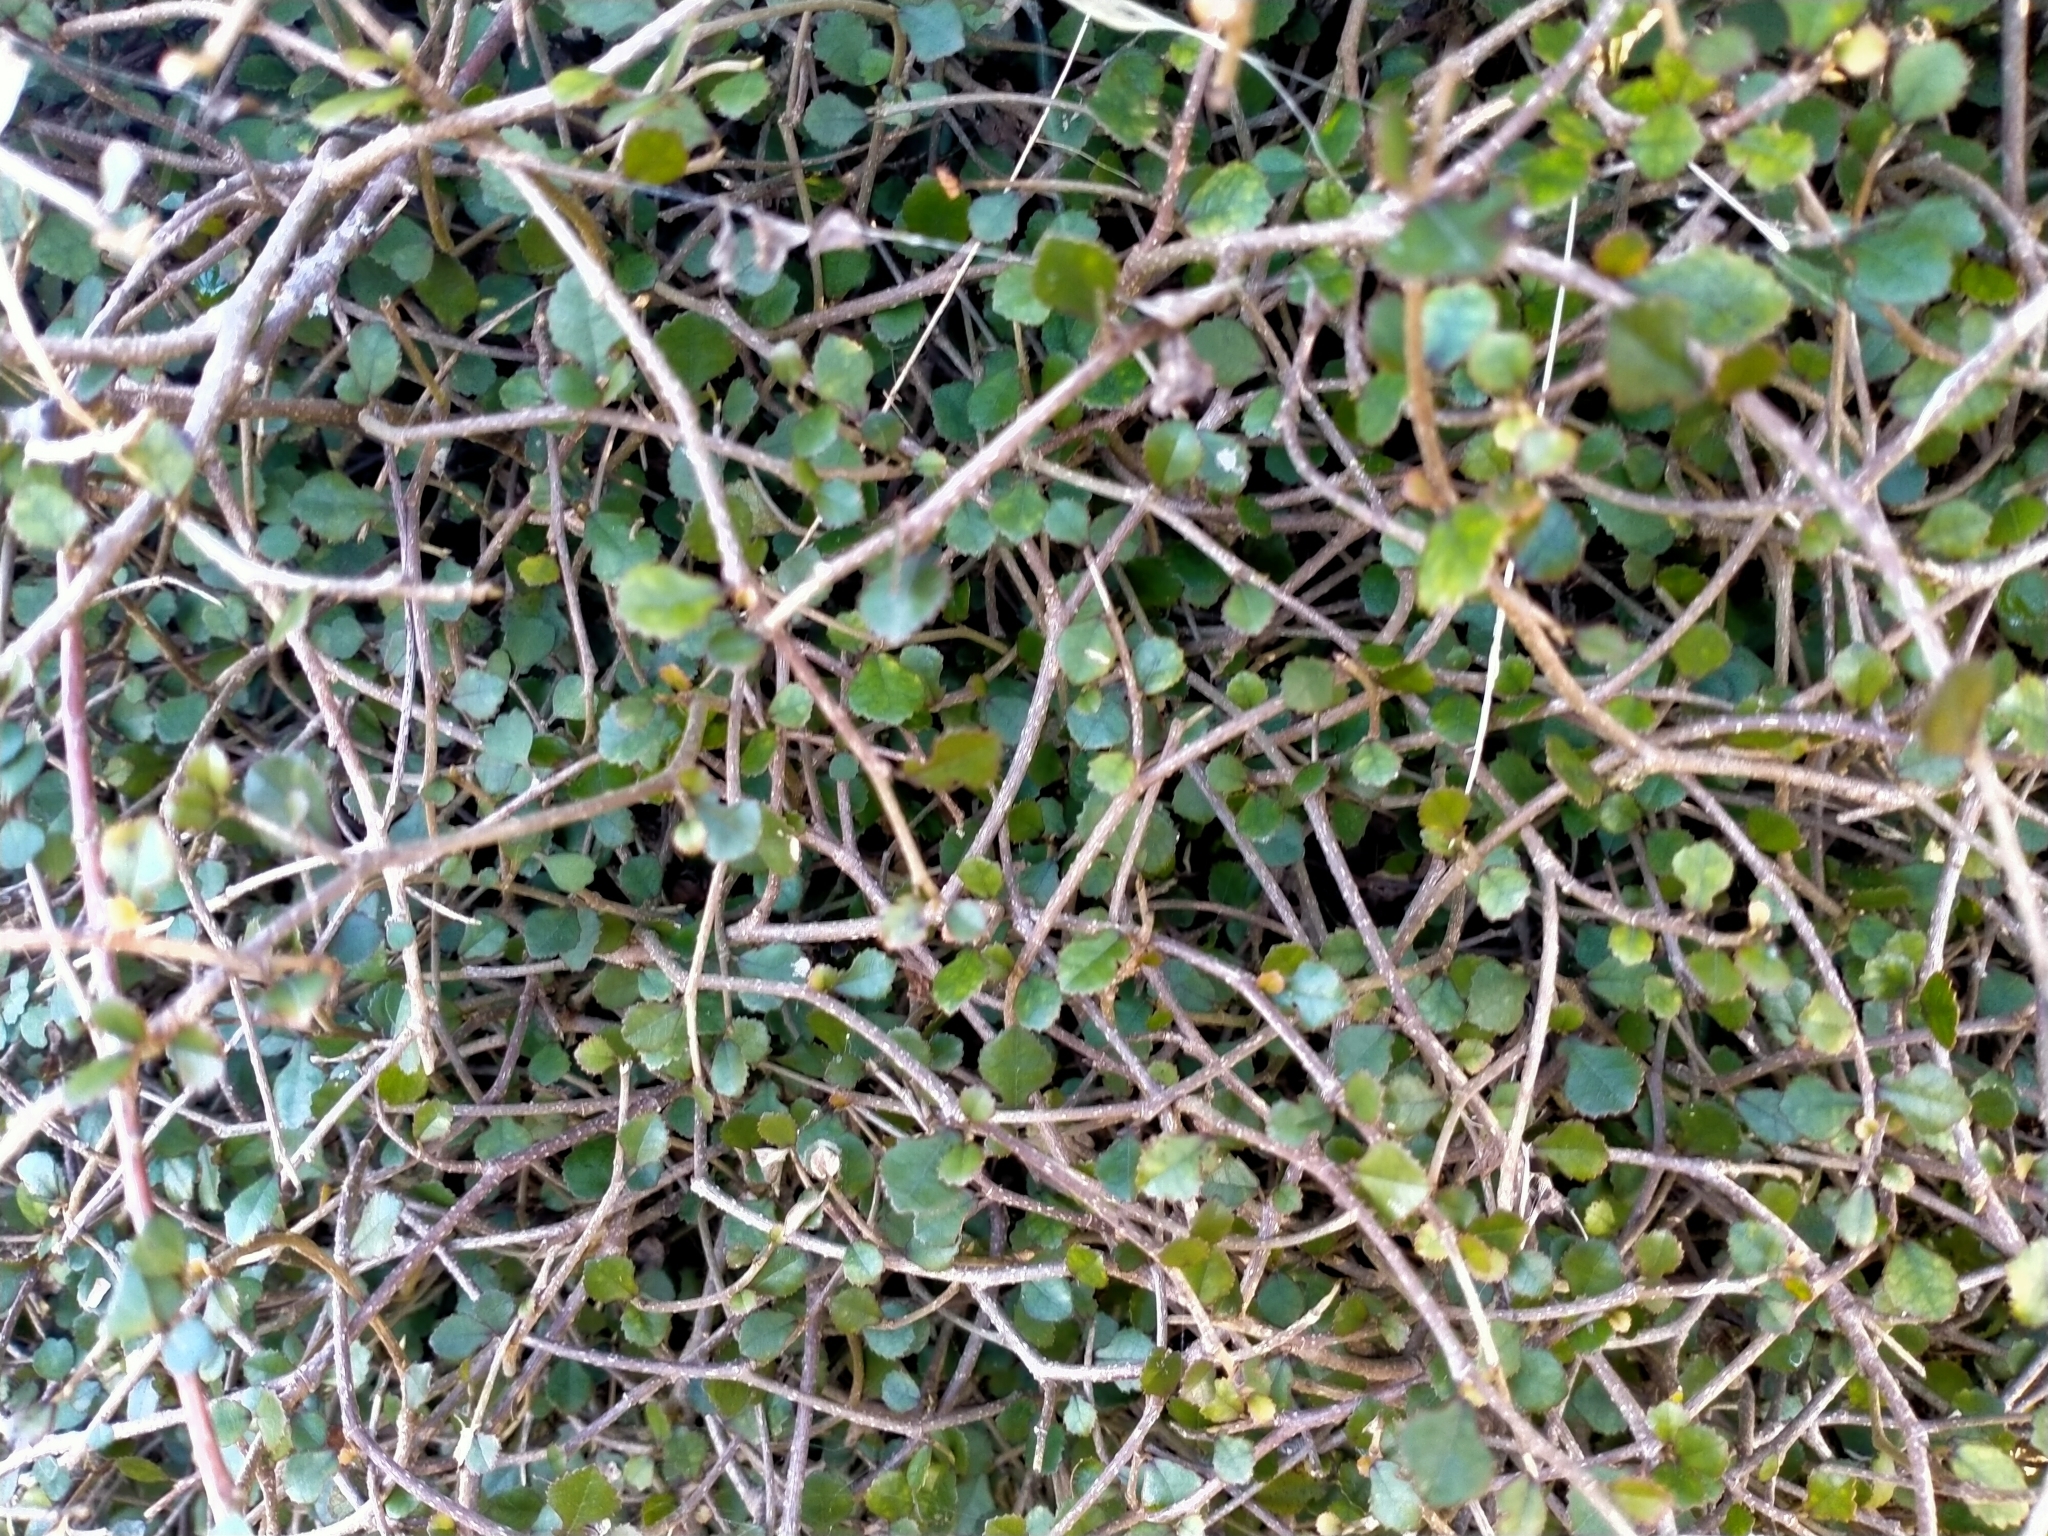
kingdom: Plantae
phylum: Tracheophyta
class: Magnoliopsida
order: Rosales
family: Moraceae
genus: Paratrophis
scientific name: Paratrophis microphylla
